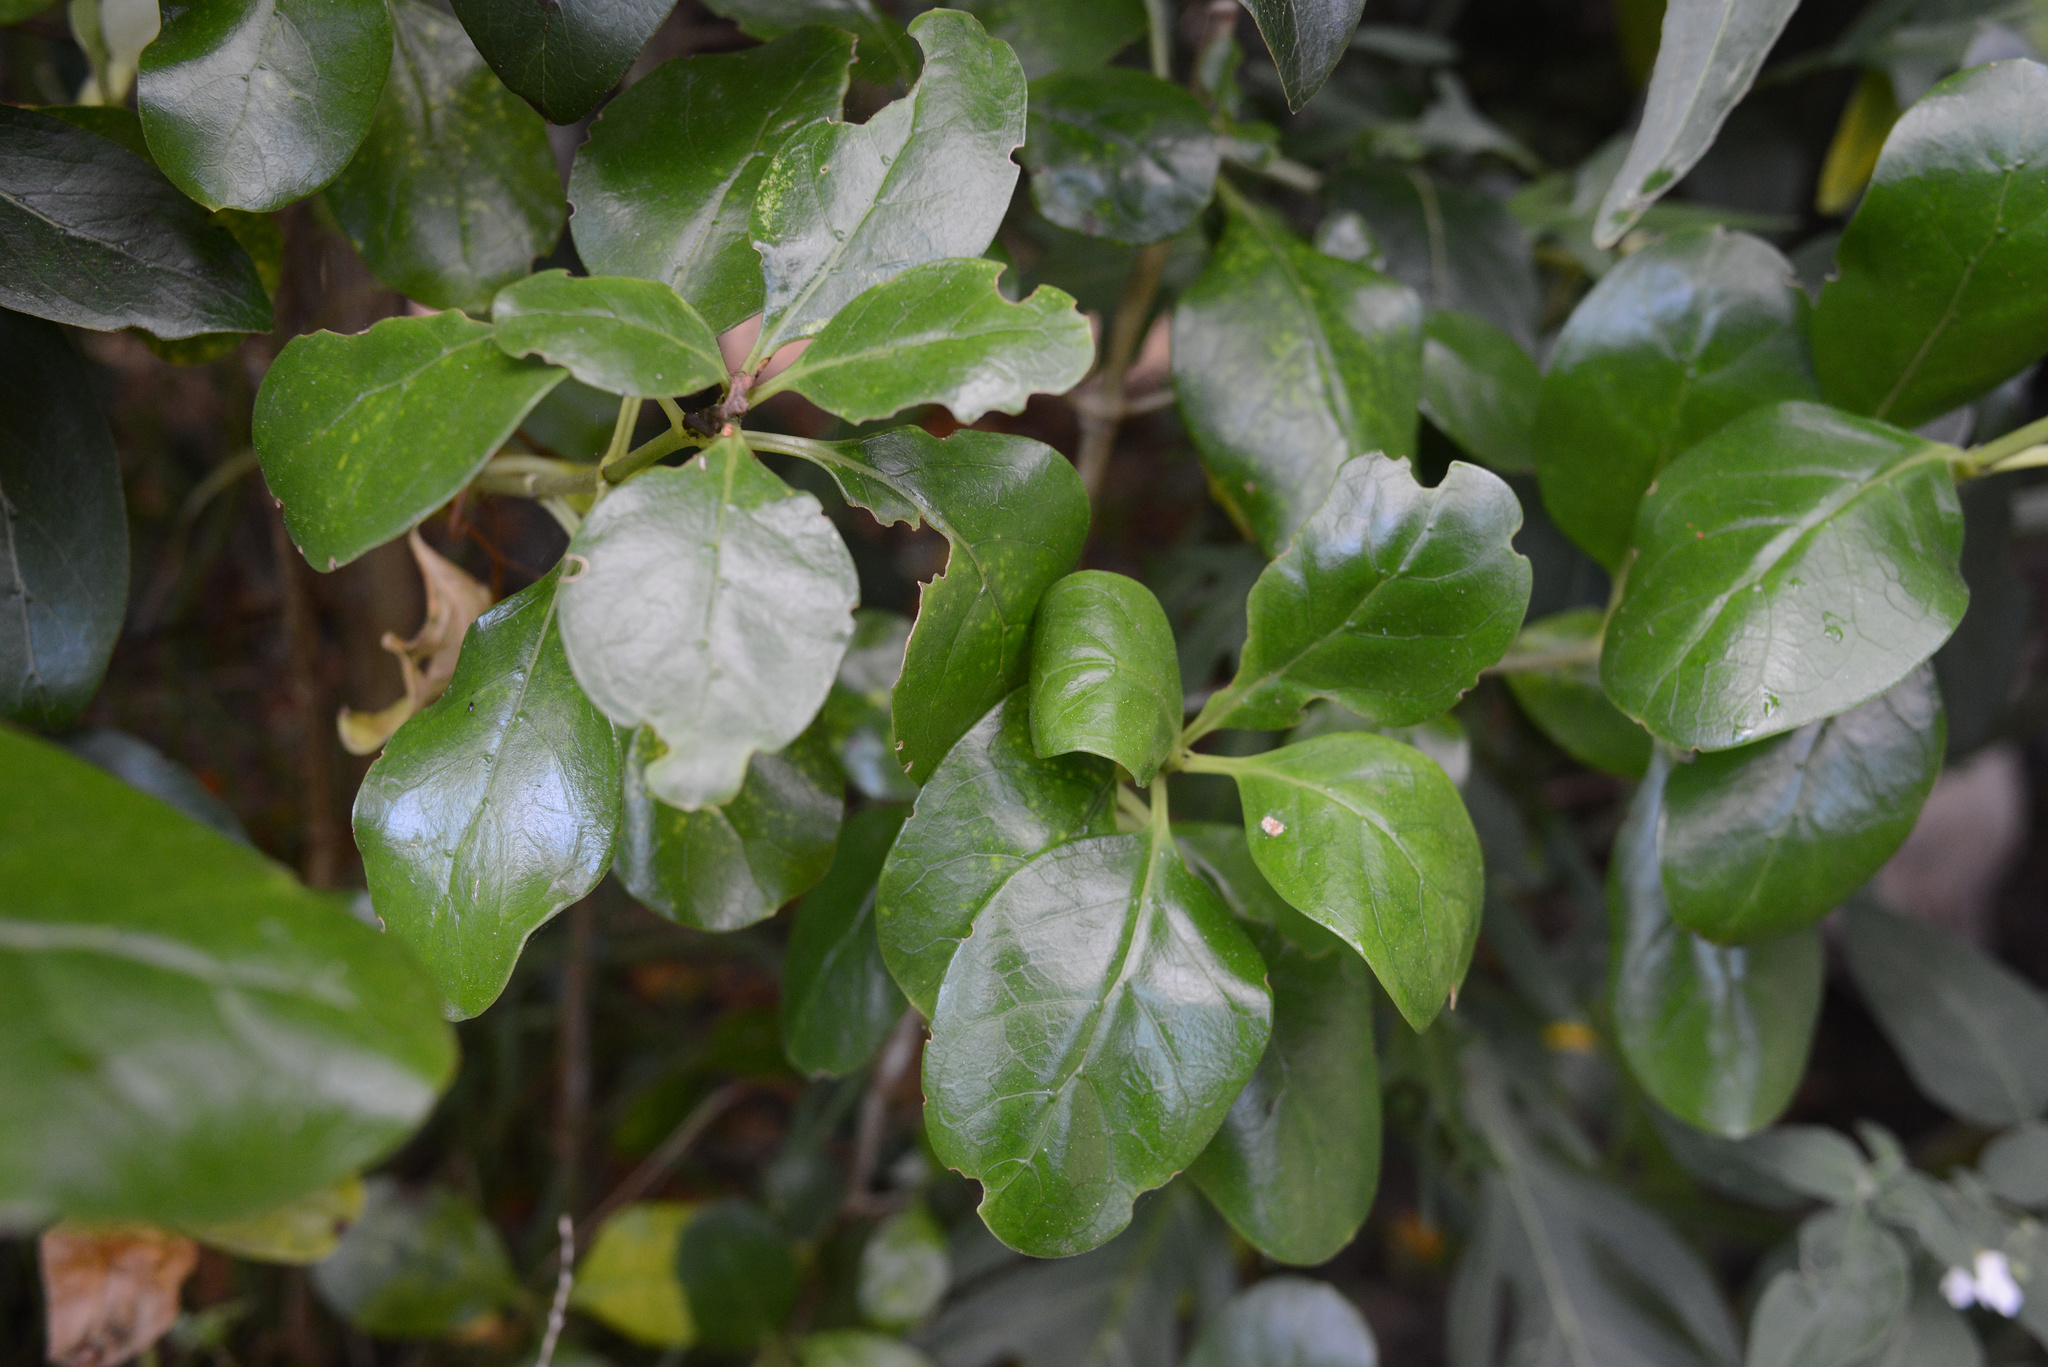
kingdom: Plantae
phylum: Tracheophyta
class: Magnoliopsida
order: Gentianales
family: Rubiaceae
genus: Coprosma
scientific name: Coprosma repens
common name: Tree bedstraw
